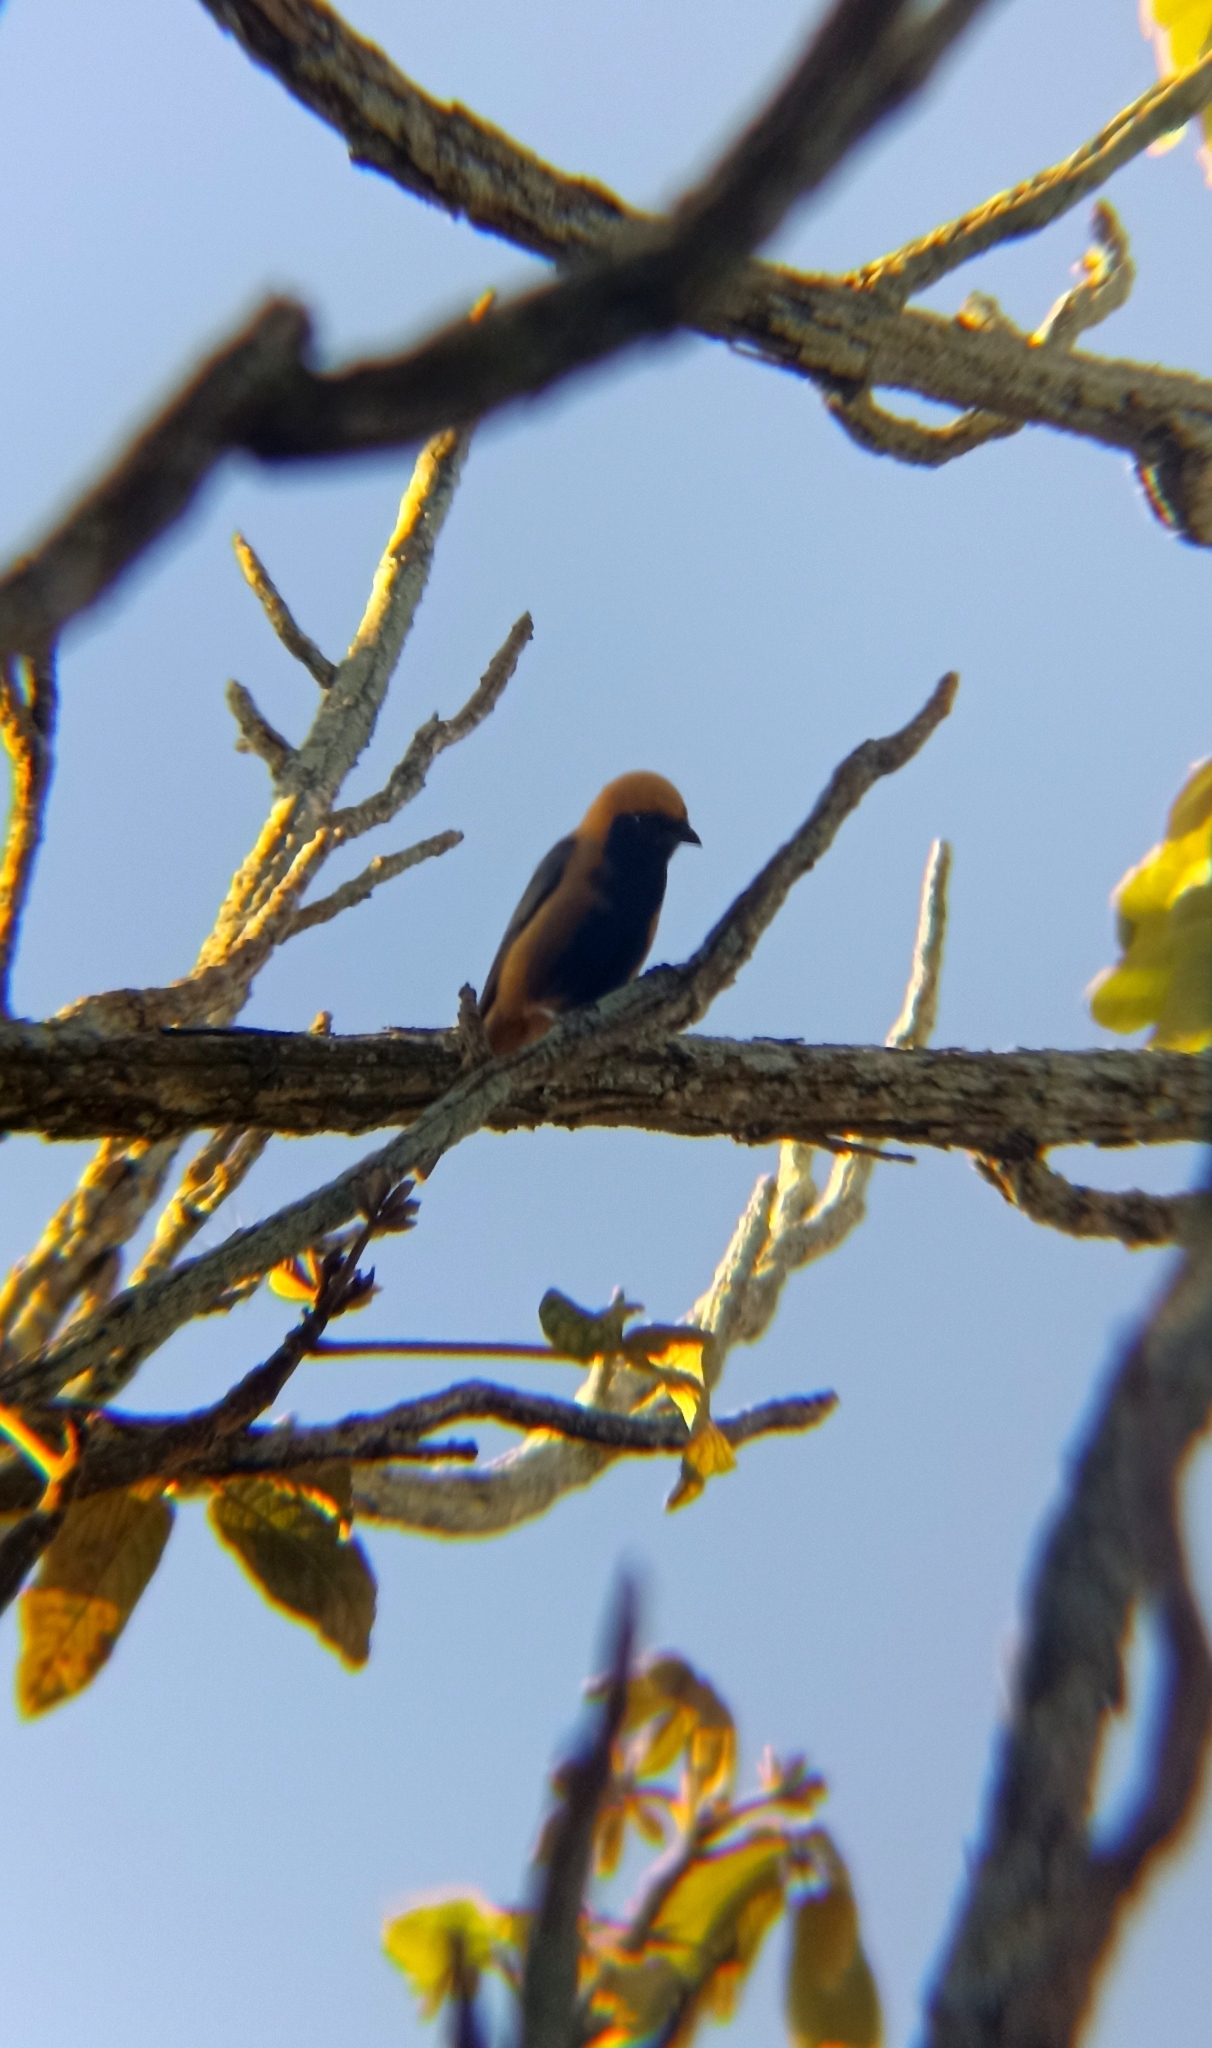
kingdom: Animalia
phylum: Chordata
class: Aves
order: Passeriformes
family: Thraupidae
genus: Stilpnia
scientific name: Stilpnia cayana
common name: Burnished-buff tanager
